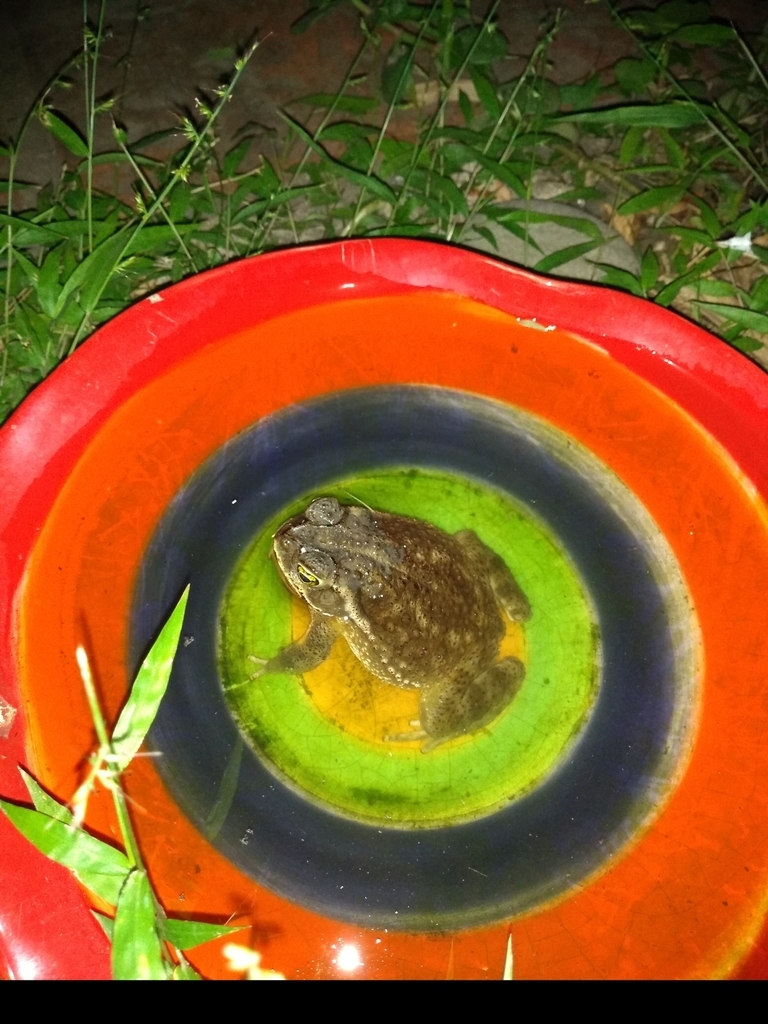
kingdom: Animalia
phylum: Chordata
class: Amphibia
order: Anura
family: Bufonidae
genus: Rhinella
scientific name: Rhinella arenarum
